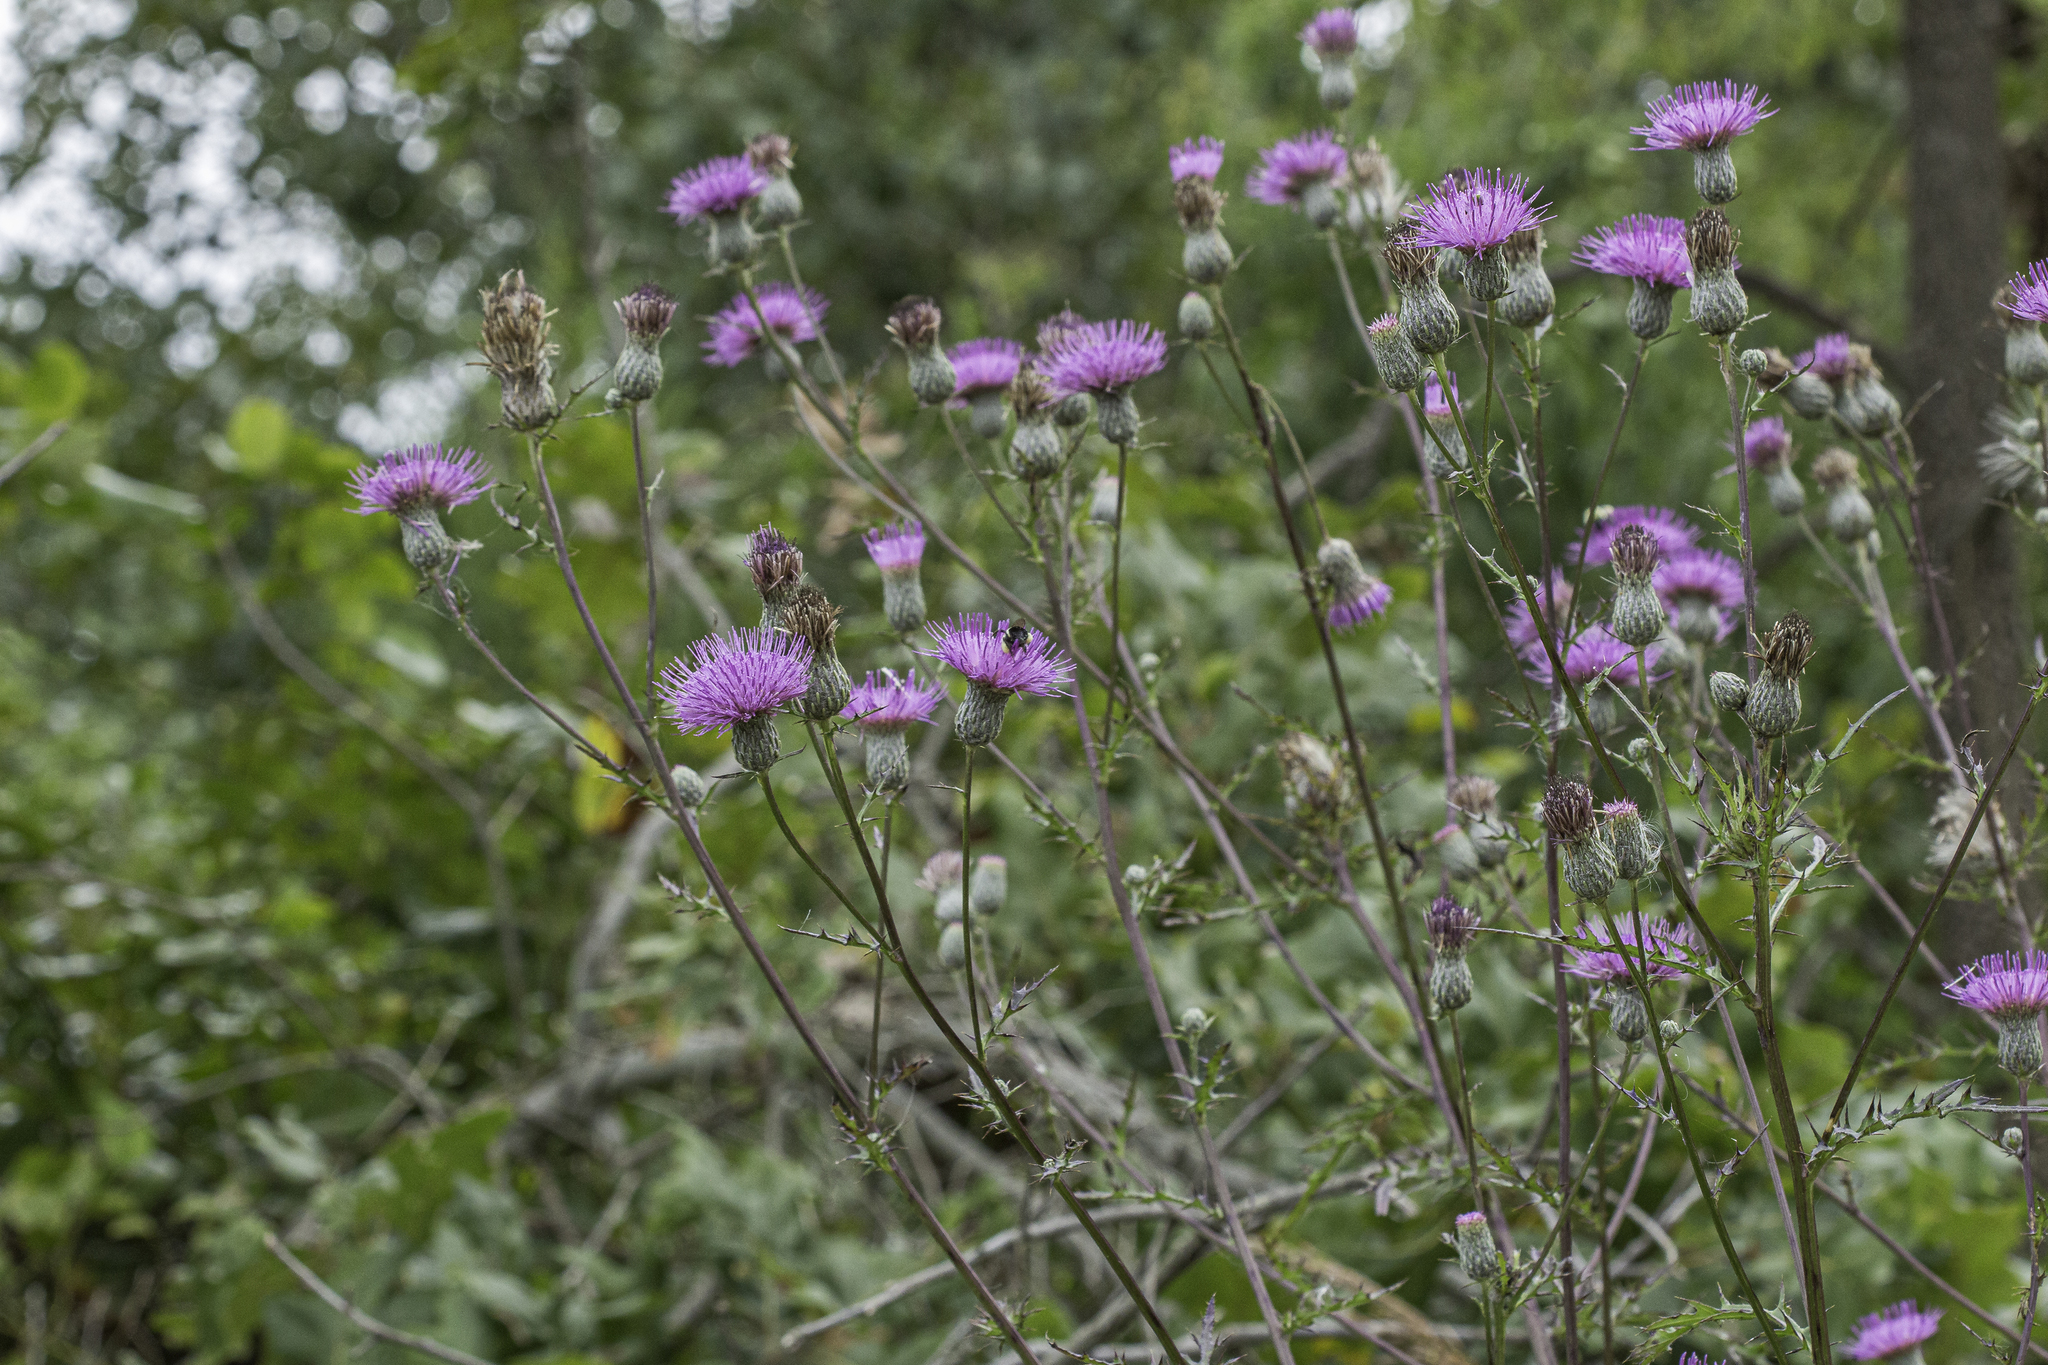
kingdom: Plantae
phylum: Tracheophyta
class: Magnoliopsida
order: Asterales
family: Asteraceae
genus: Cirsium
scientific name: Cirsium muticum
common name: Dunce-nettle
